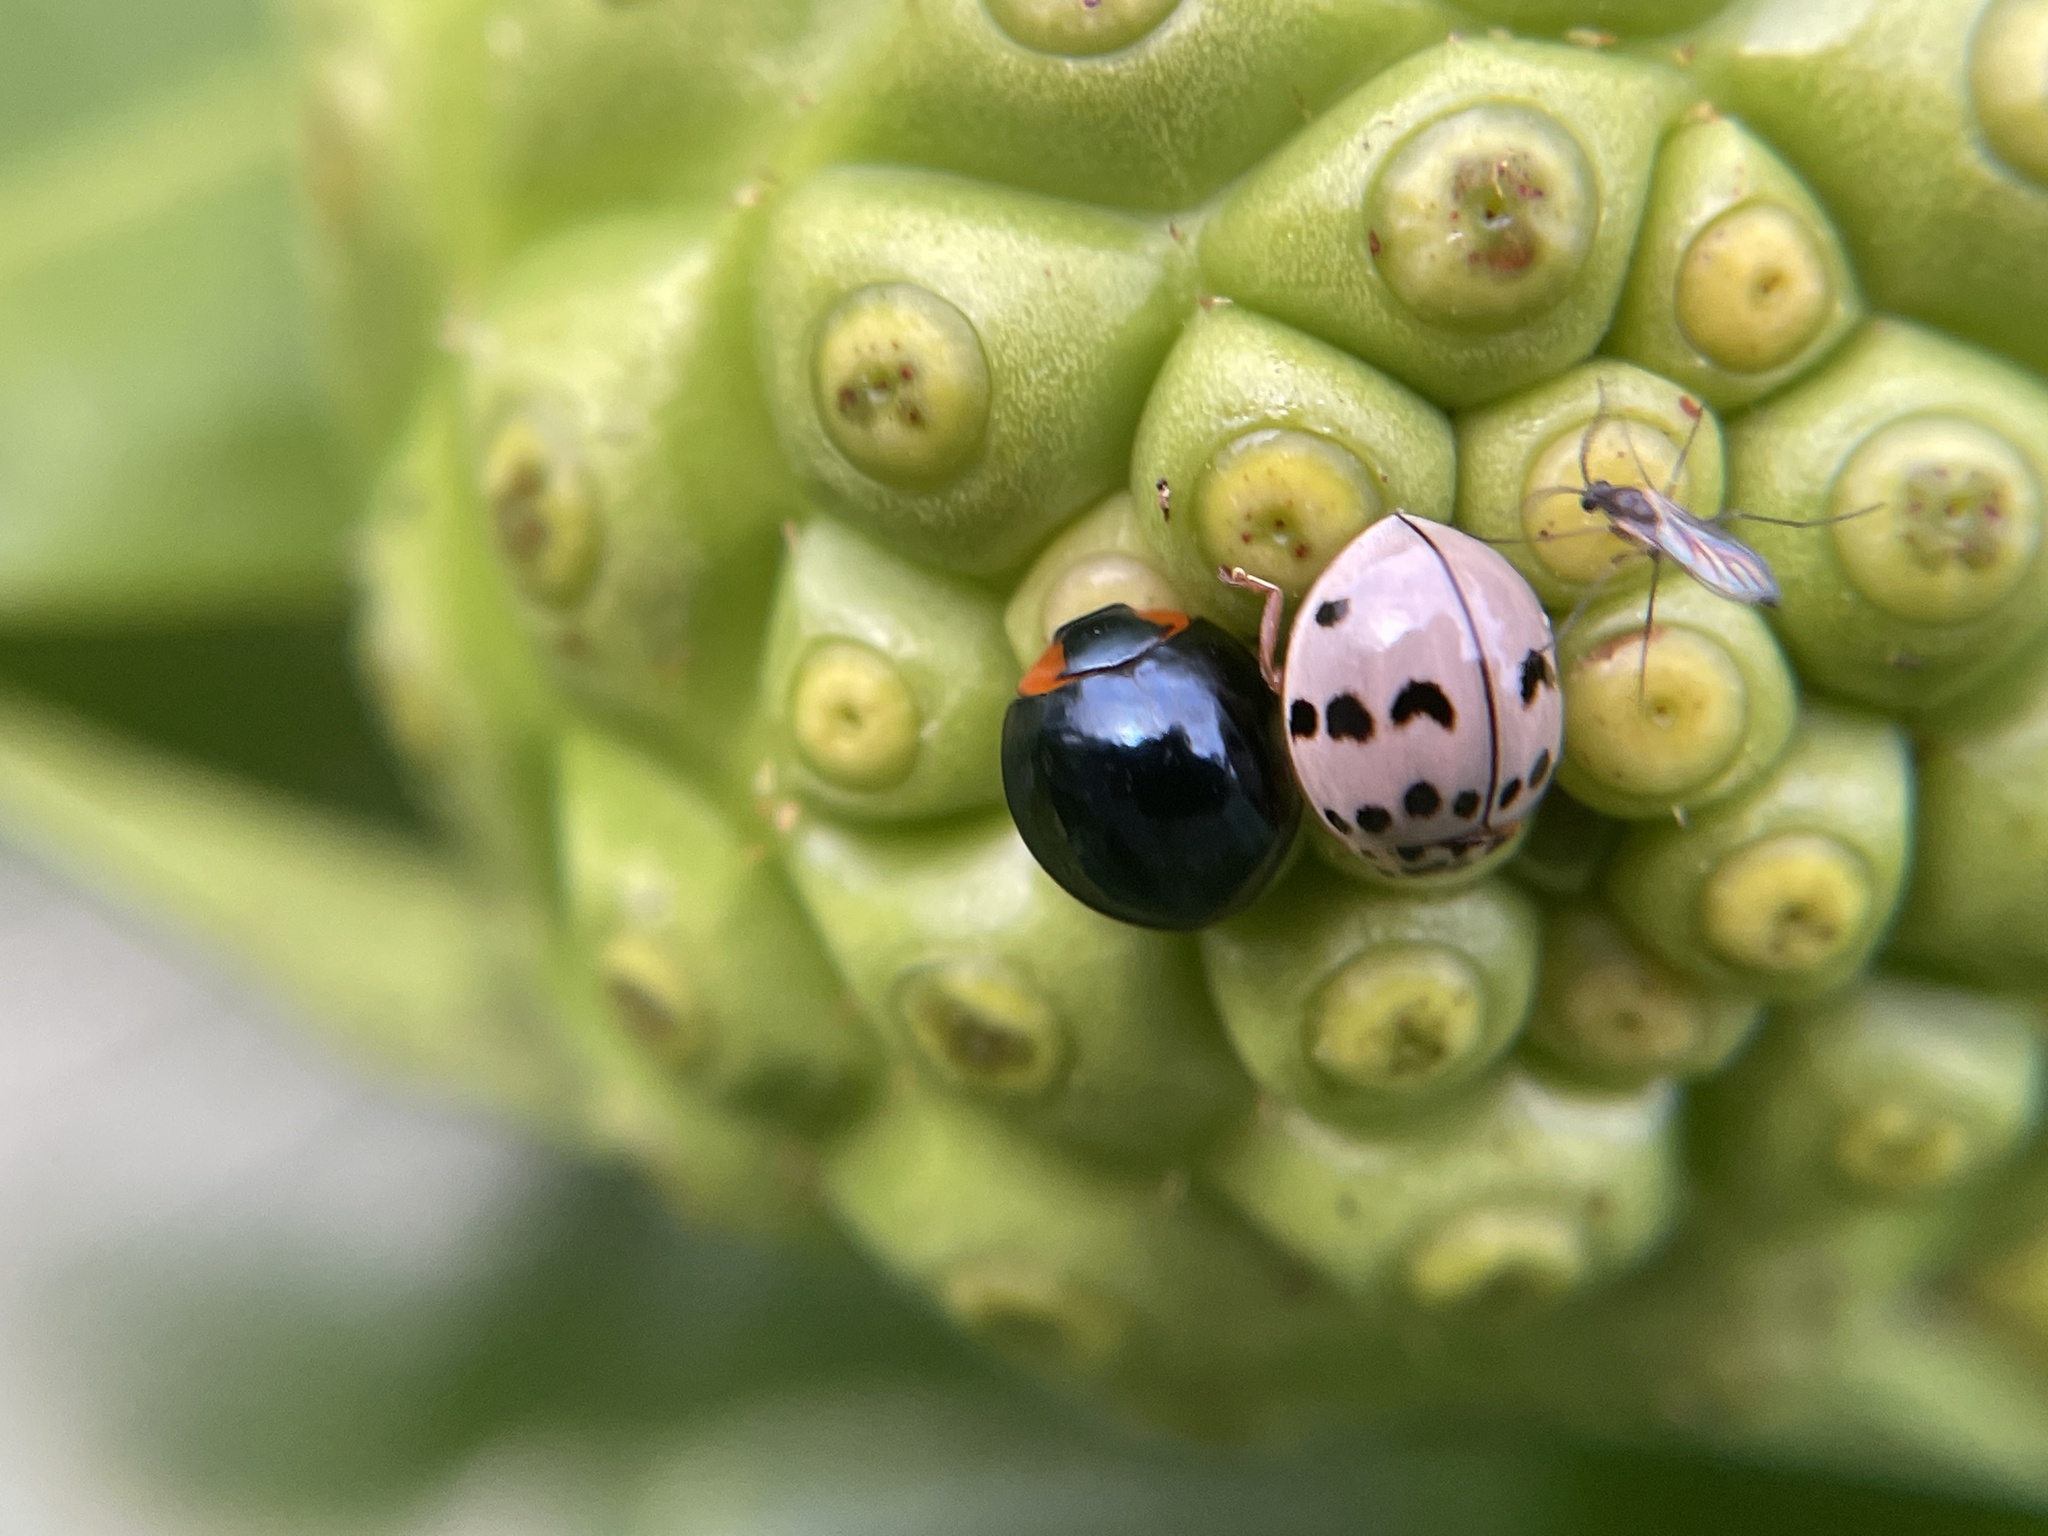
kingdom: Animalia
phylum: Arthropoda
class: Insecta
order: Coleoptera
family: Coccinellidae
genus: Olla
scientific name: Olla v-nigrum
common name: Ashy gray lady beetle
